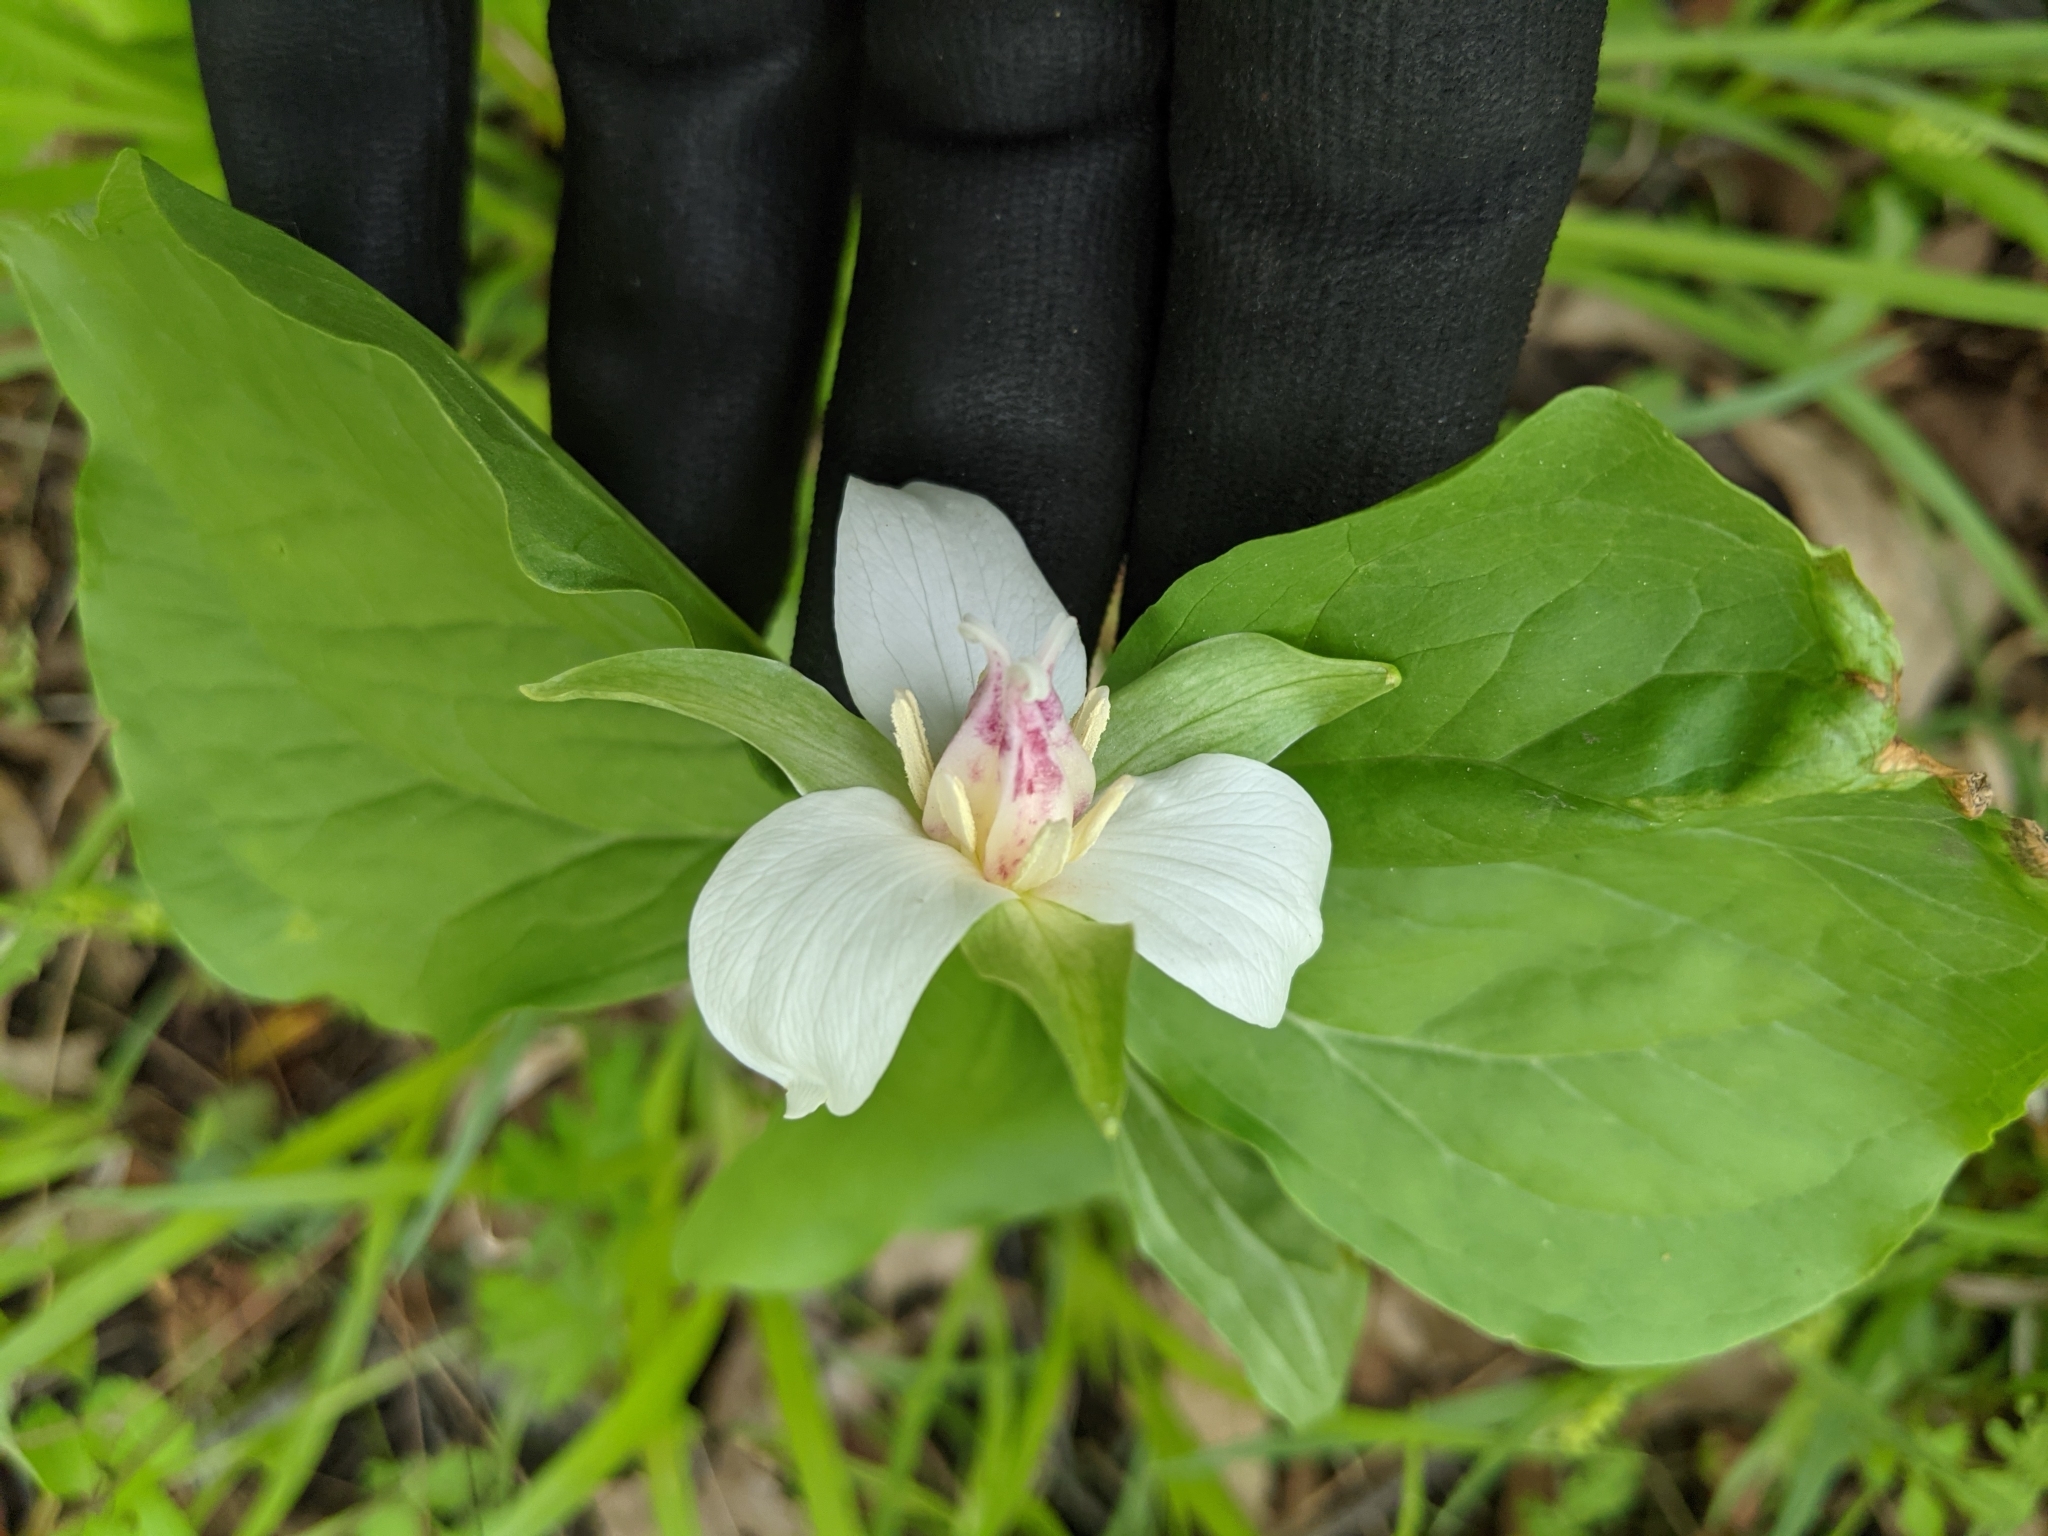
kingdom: Plantae
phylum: Tracheophyta
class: Liliopsida
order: Liliales
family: Melanthiaceae
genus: Trillium
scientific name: Trillium flexipes
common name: Drooping trillium
